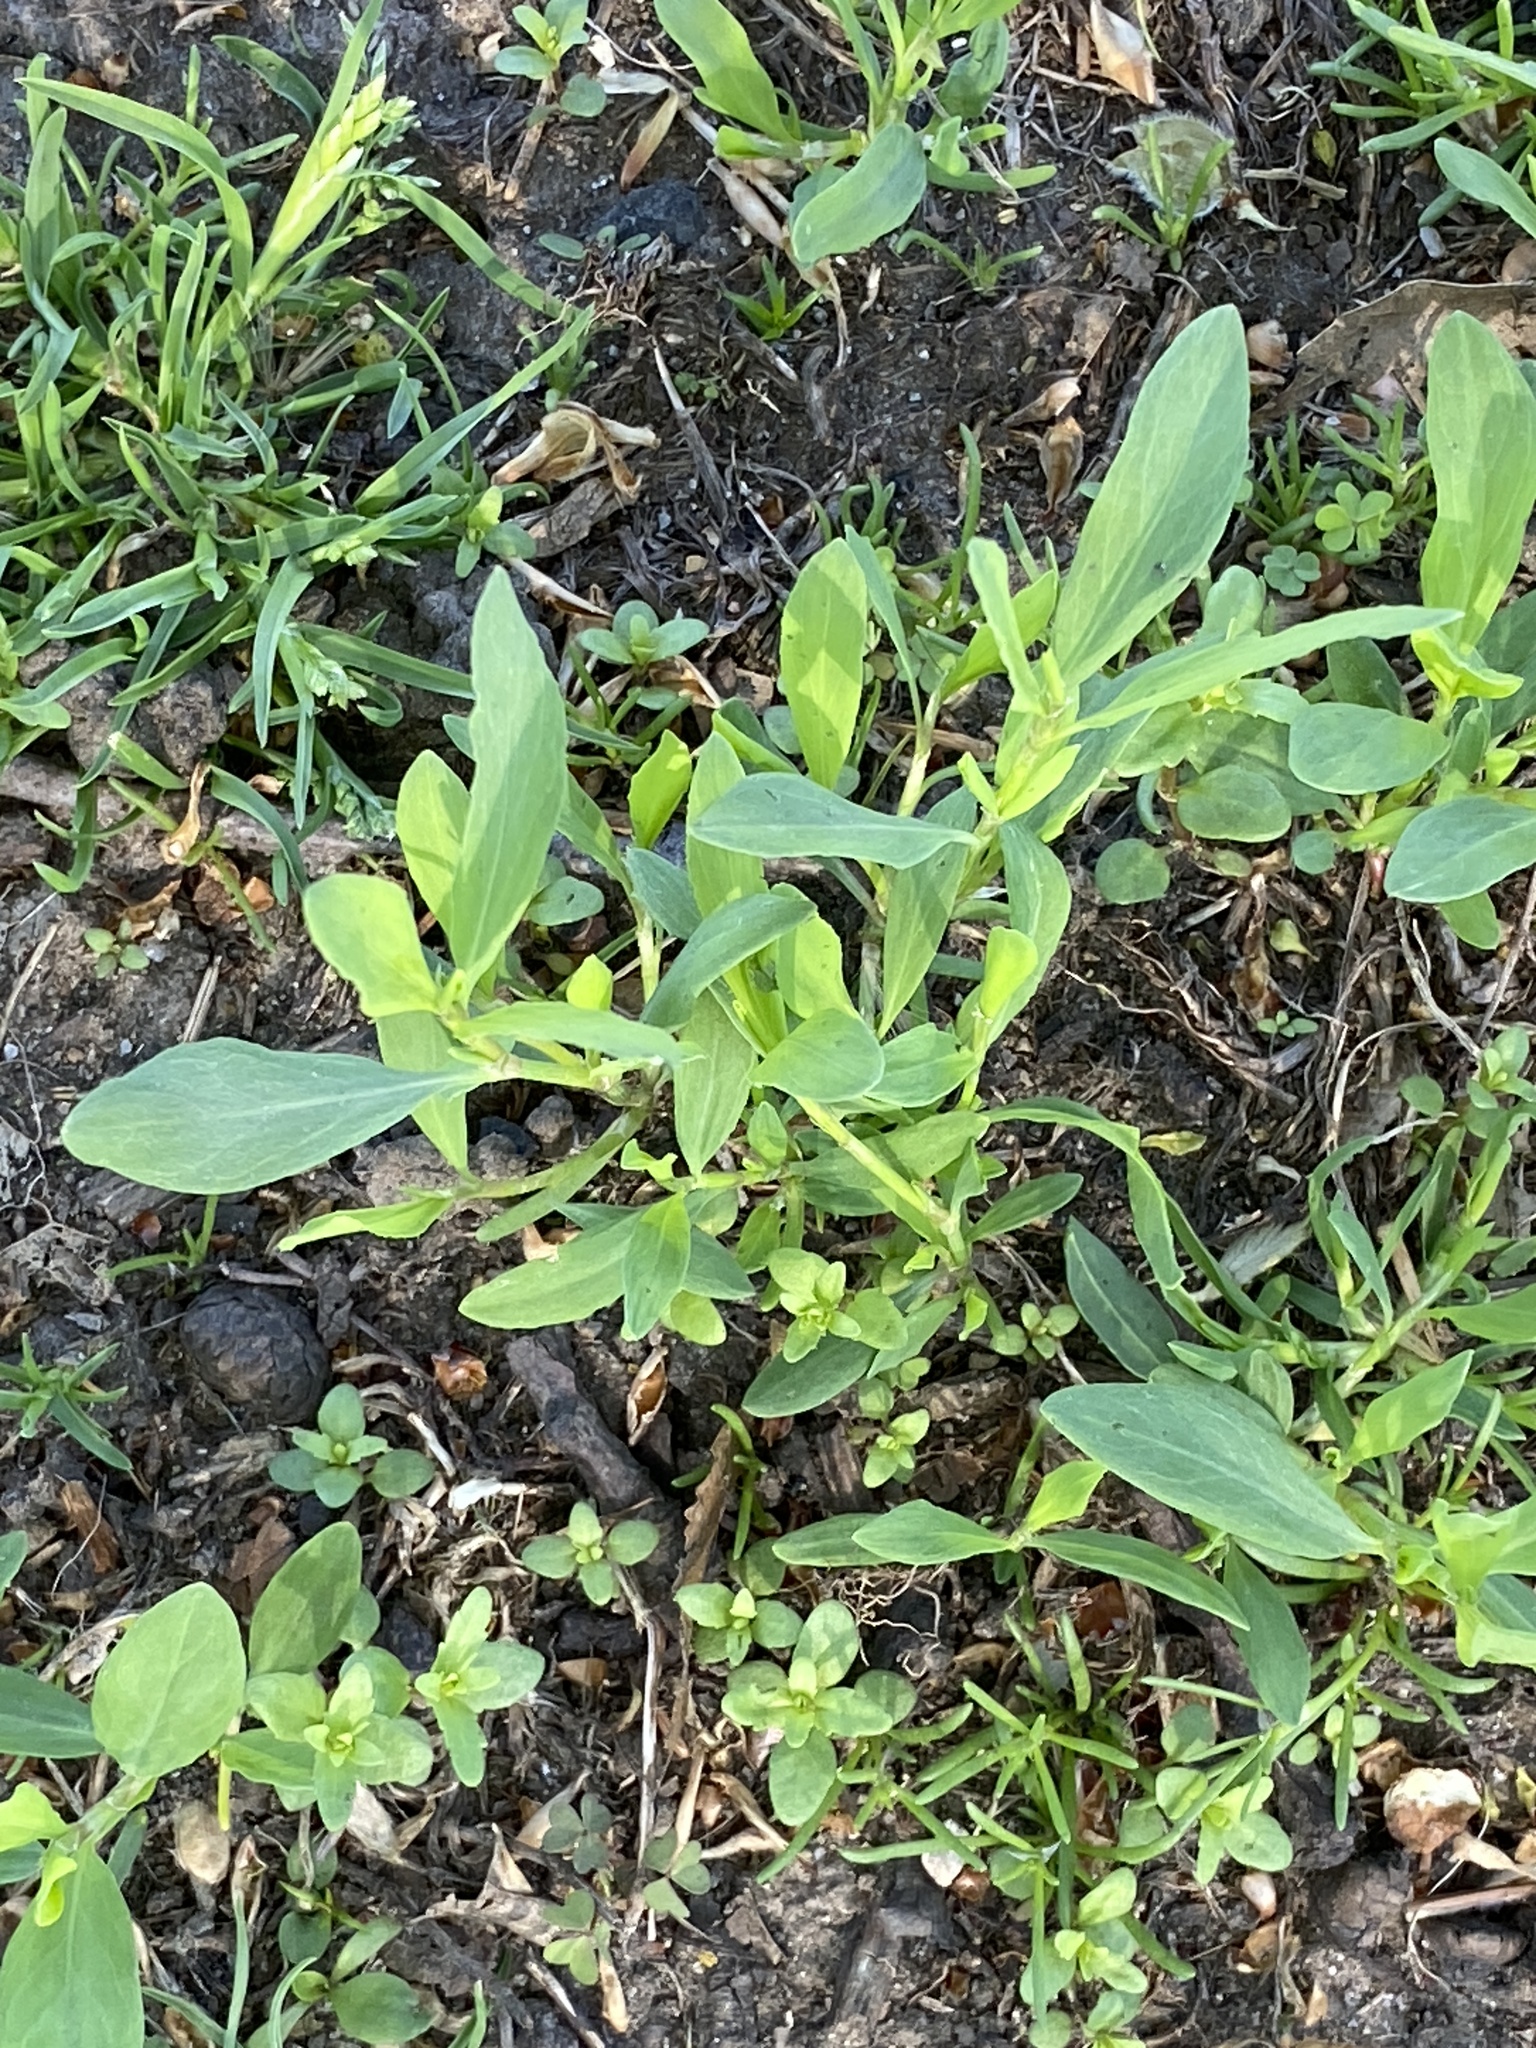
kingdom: Plantae
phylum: Tracheophyta
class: Magnoliopsida
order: Caryophyllales
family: Polygonaceae
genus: Polygonum
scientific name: Polygonum aviculare
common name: Prostrate knotweed
